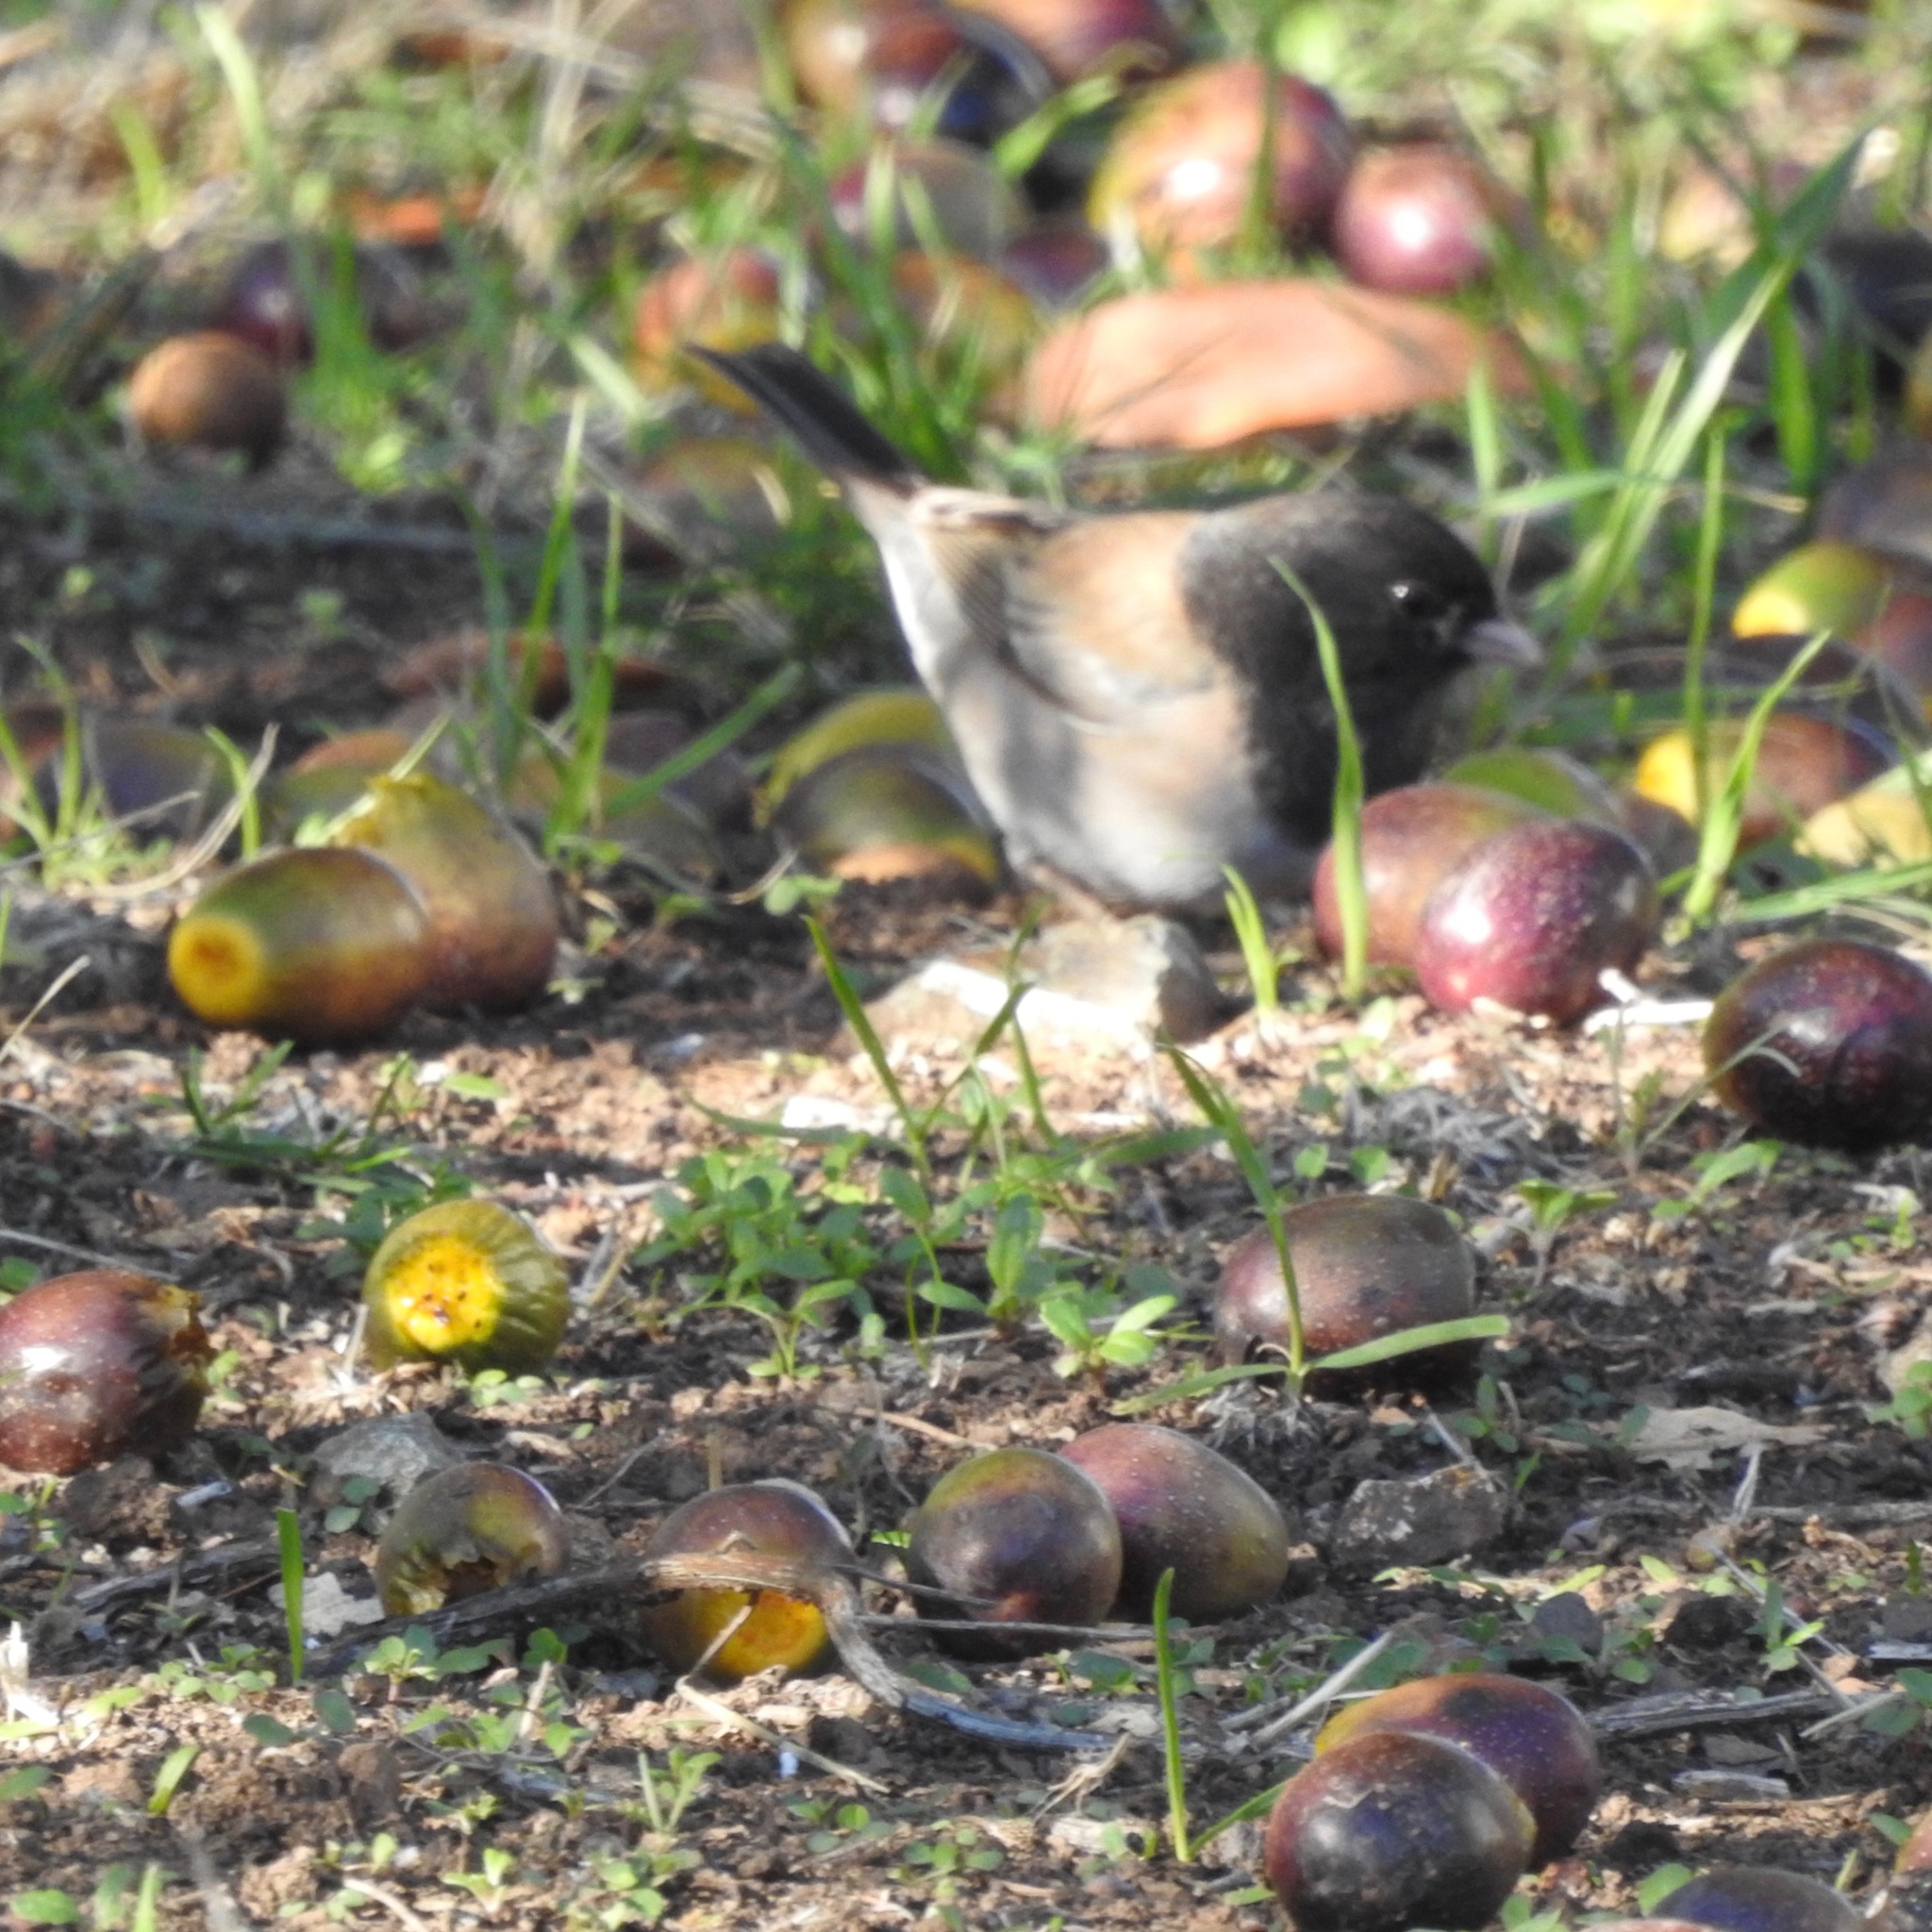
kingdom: Animalia
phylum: Chordata
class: Aves
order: Passeriformes
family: Passerellidae
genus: Junco
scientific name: Junco hyemalis
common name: Dark-eyed junco
